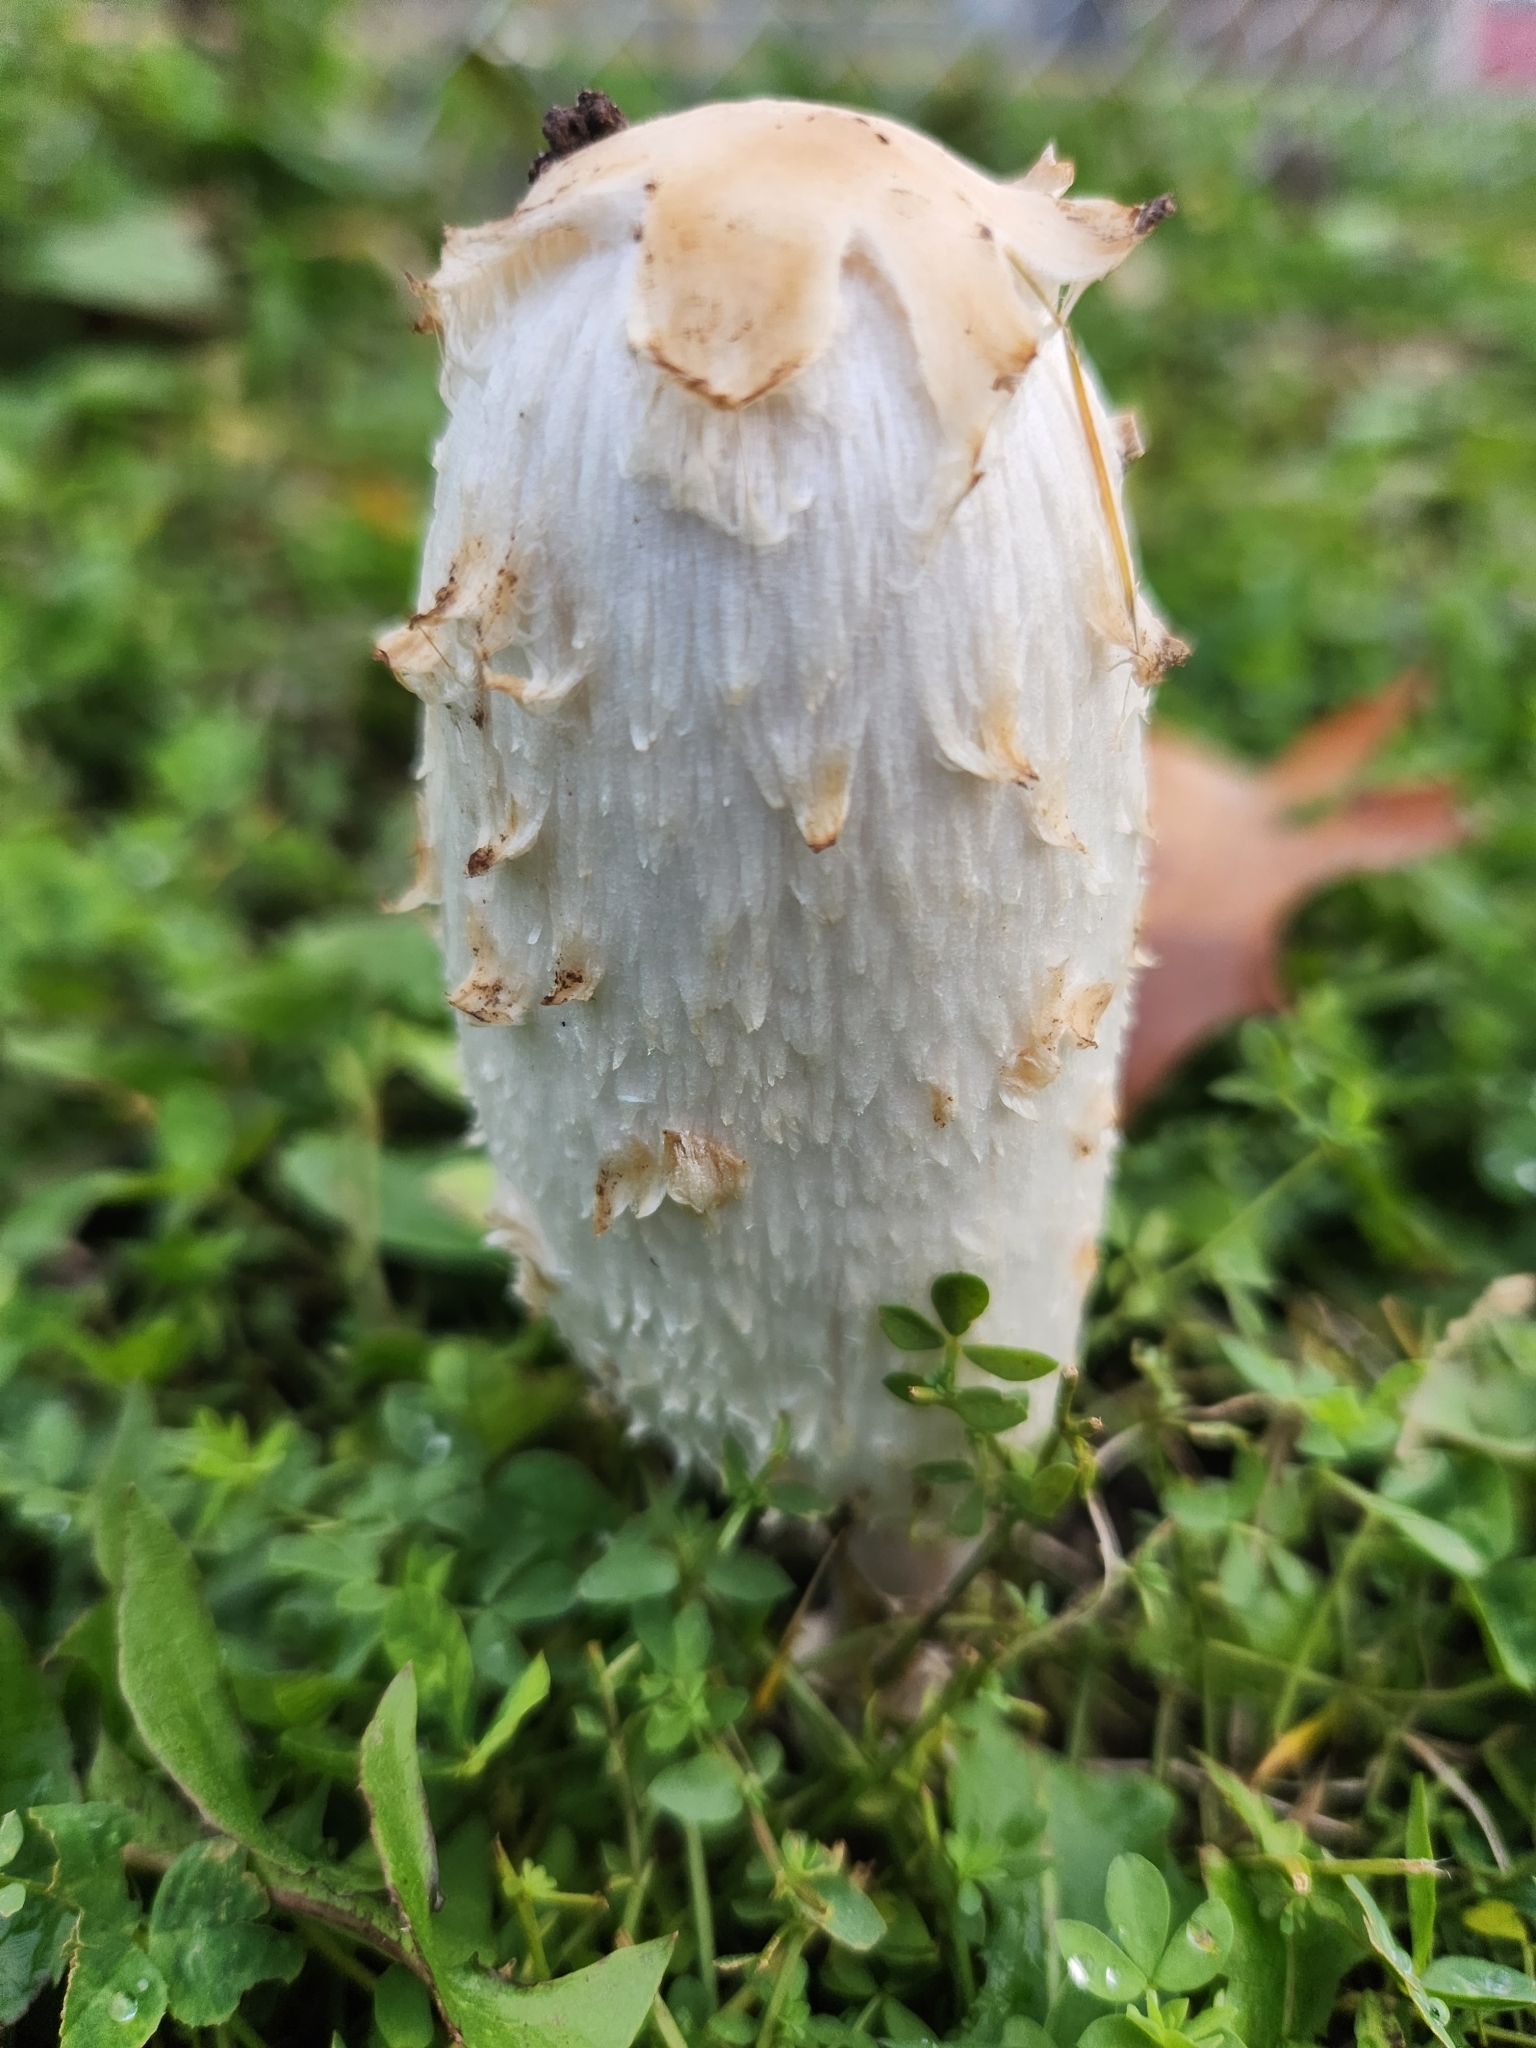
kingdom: Fungi
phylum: Basidiomycota
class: Agaricomycetes
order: Agaricales
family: Agaricaceae
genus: Coprinus
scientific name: Coprinus comatus
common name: Lawyer's wig
